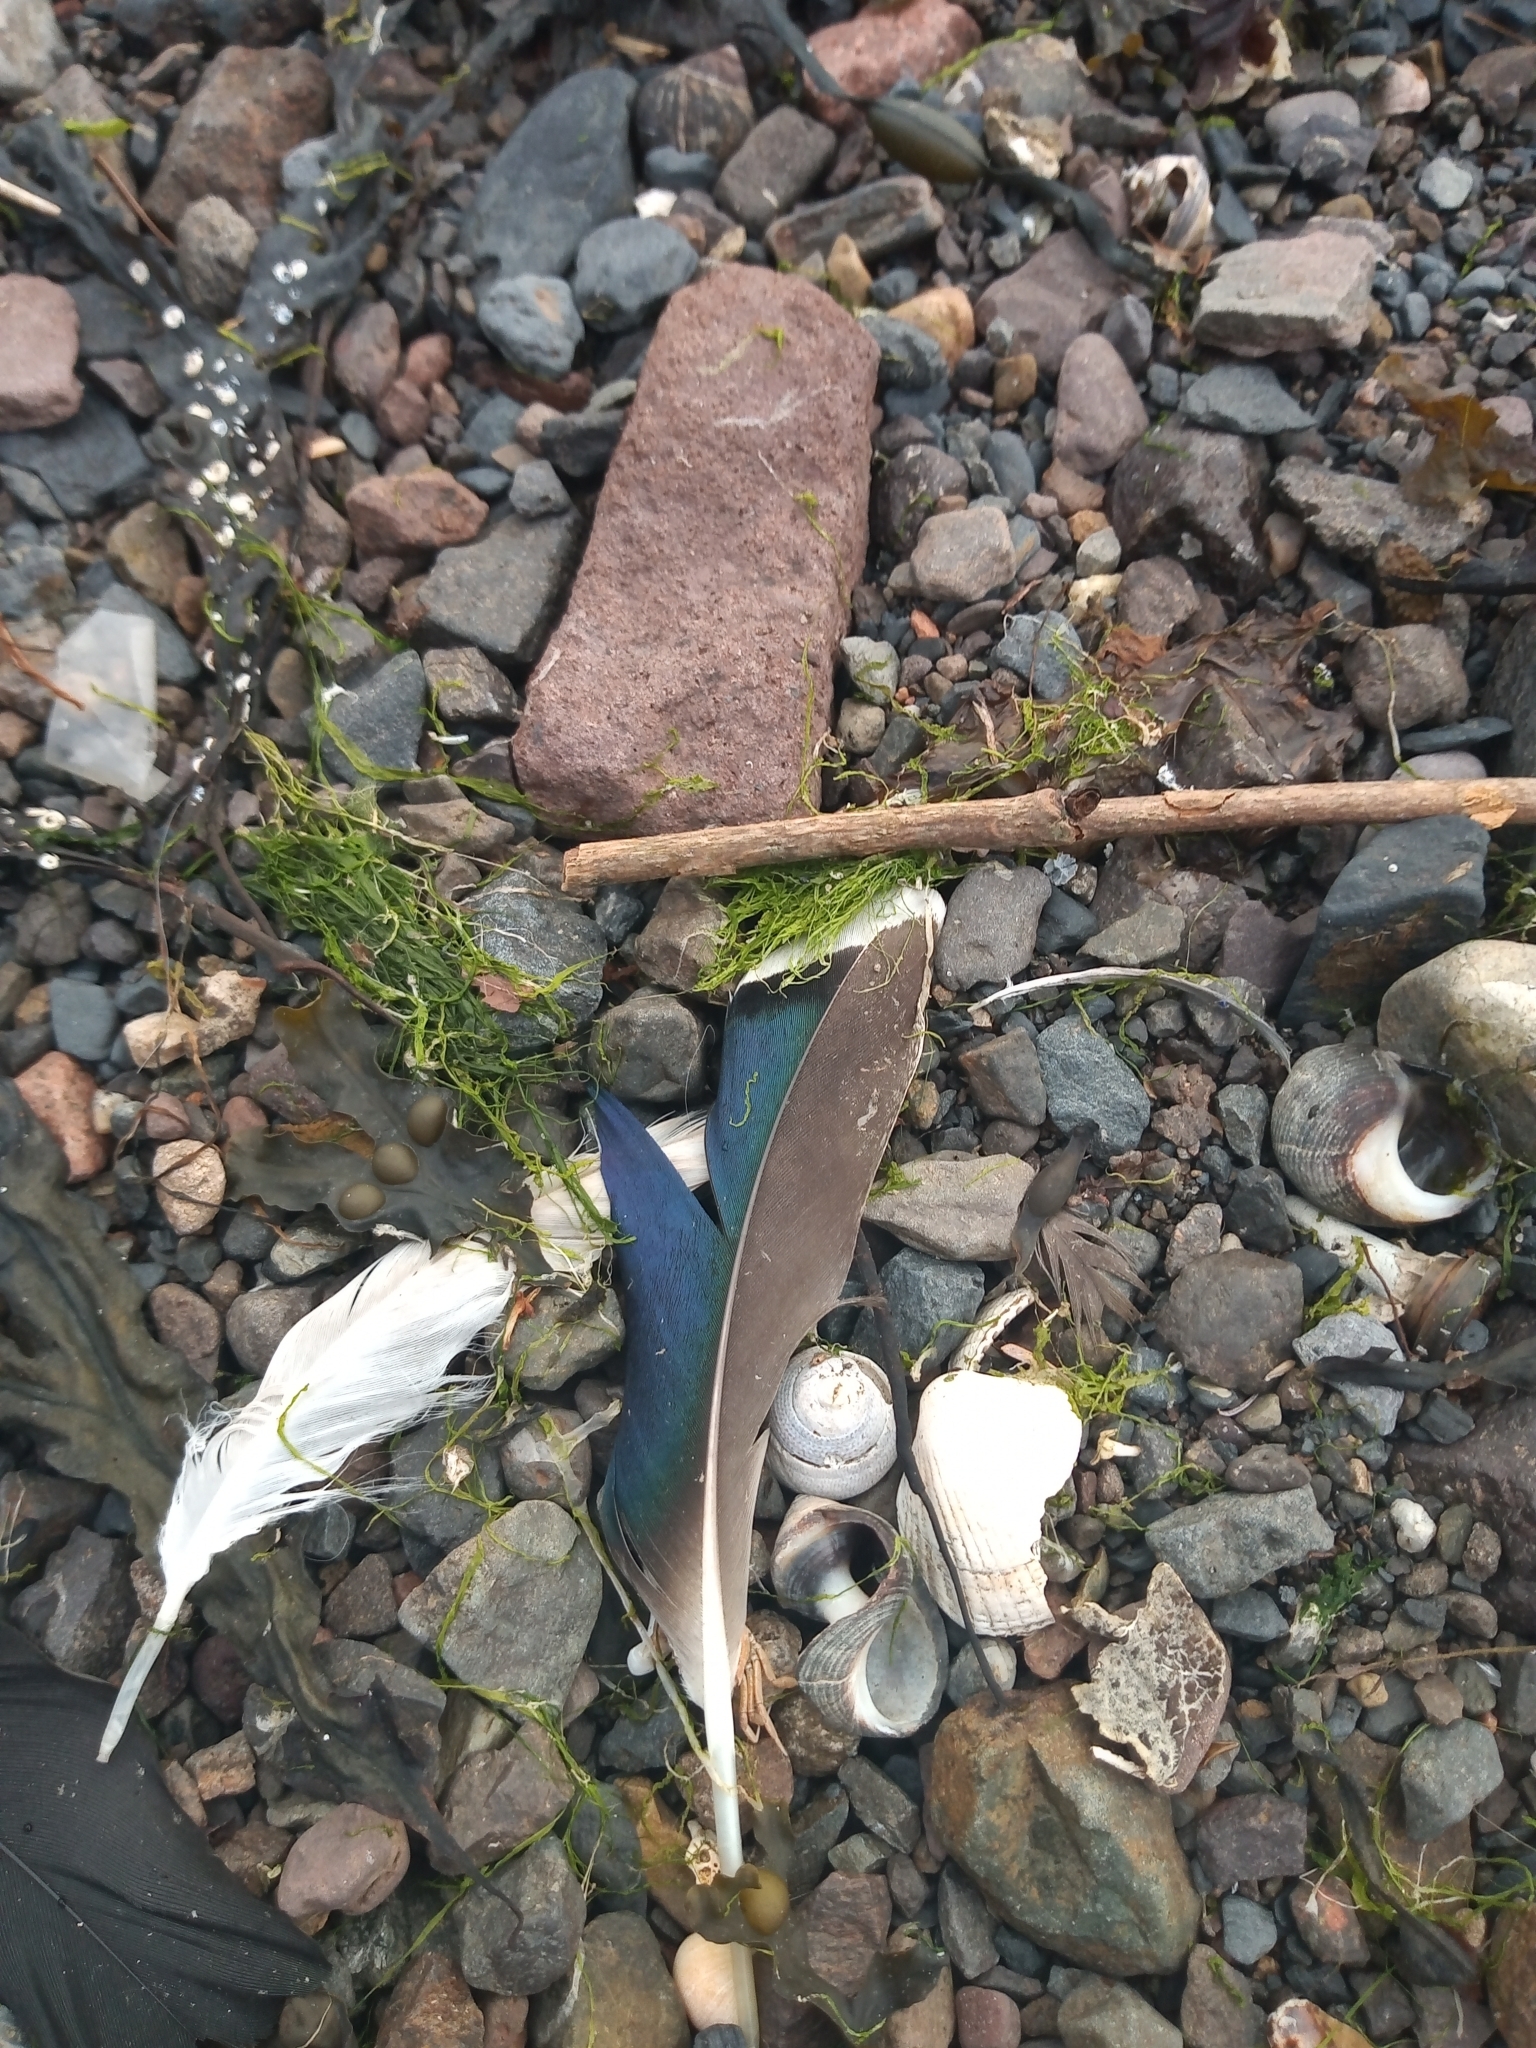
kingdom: Animalia
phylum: Chordata
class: Aves
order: Anseriformes
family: Anatidae
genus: Anas
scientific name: Anas platyrhynchos
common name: Mallard
